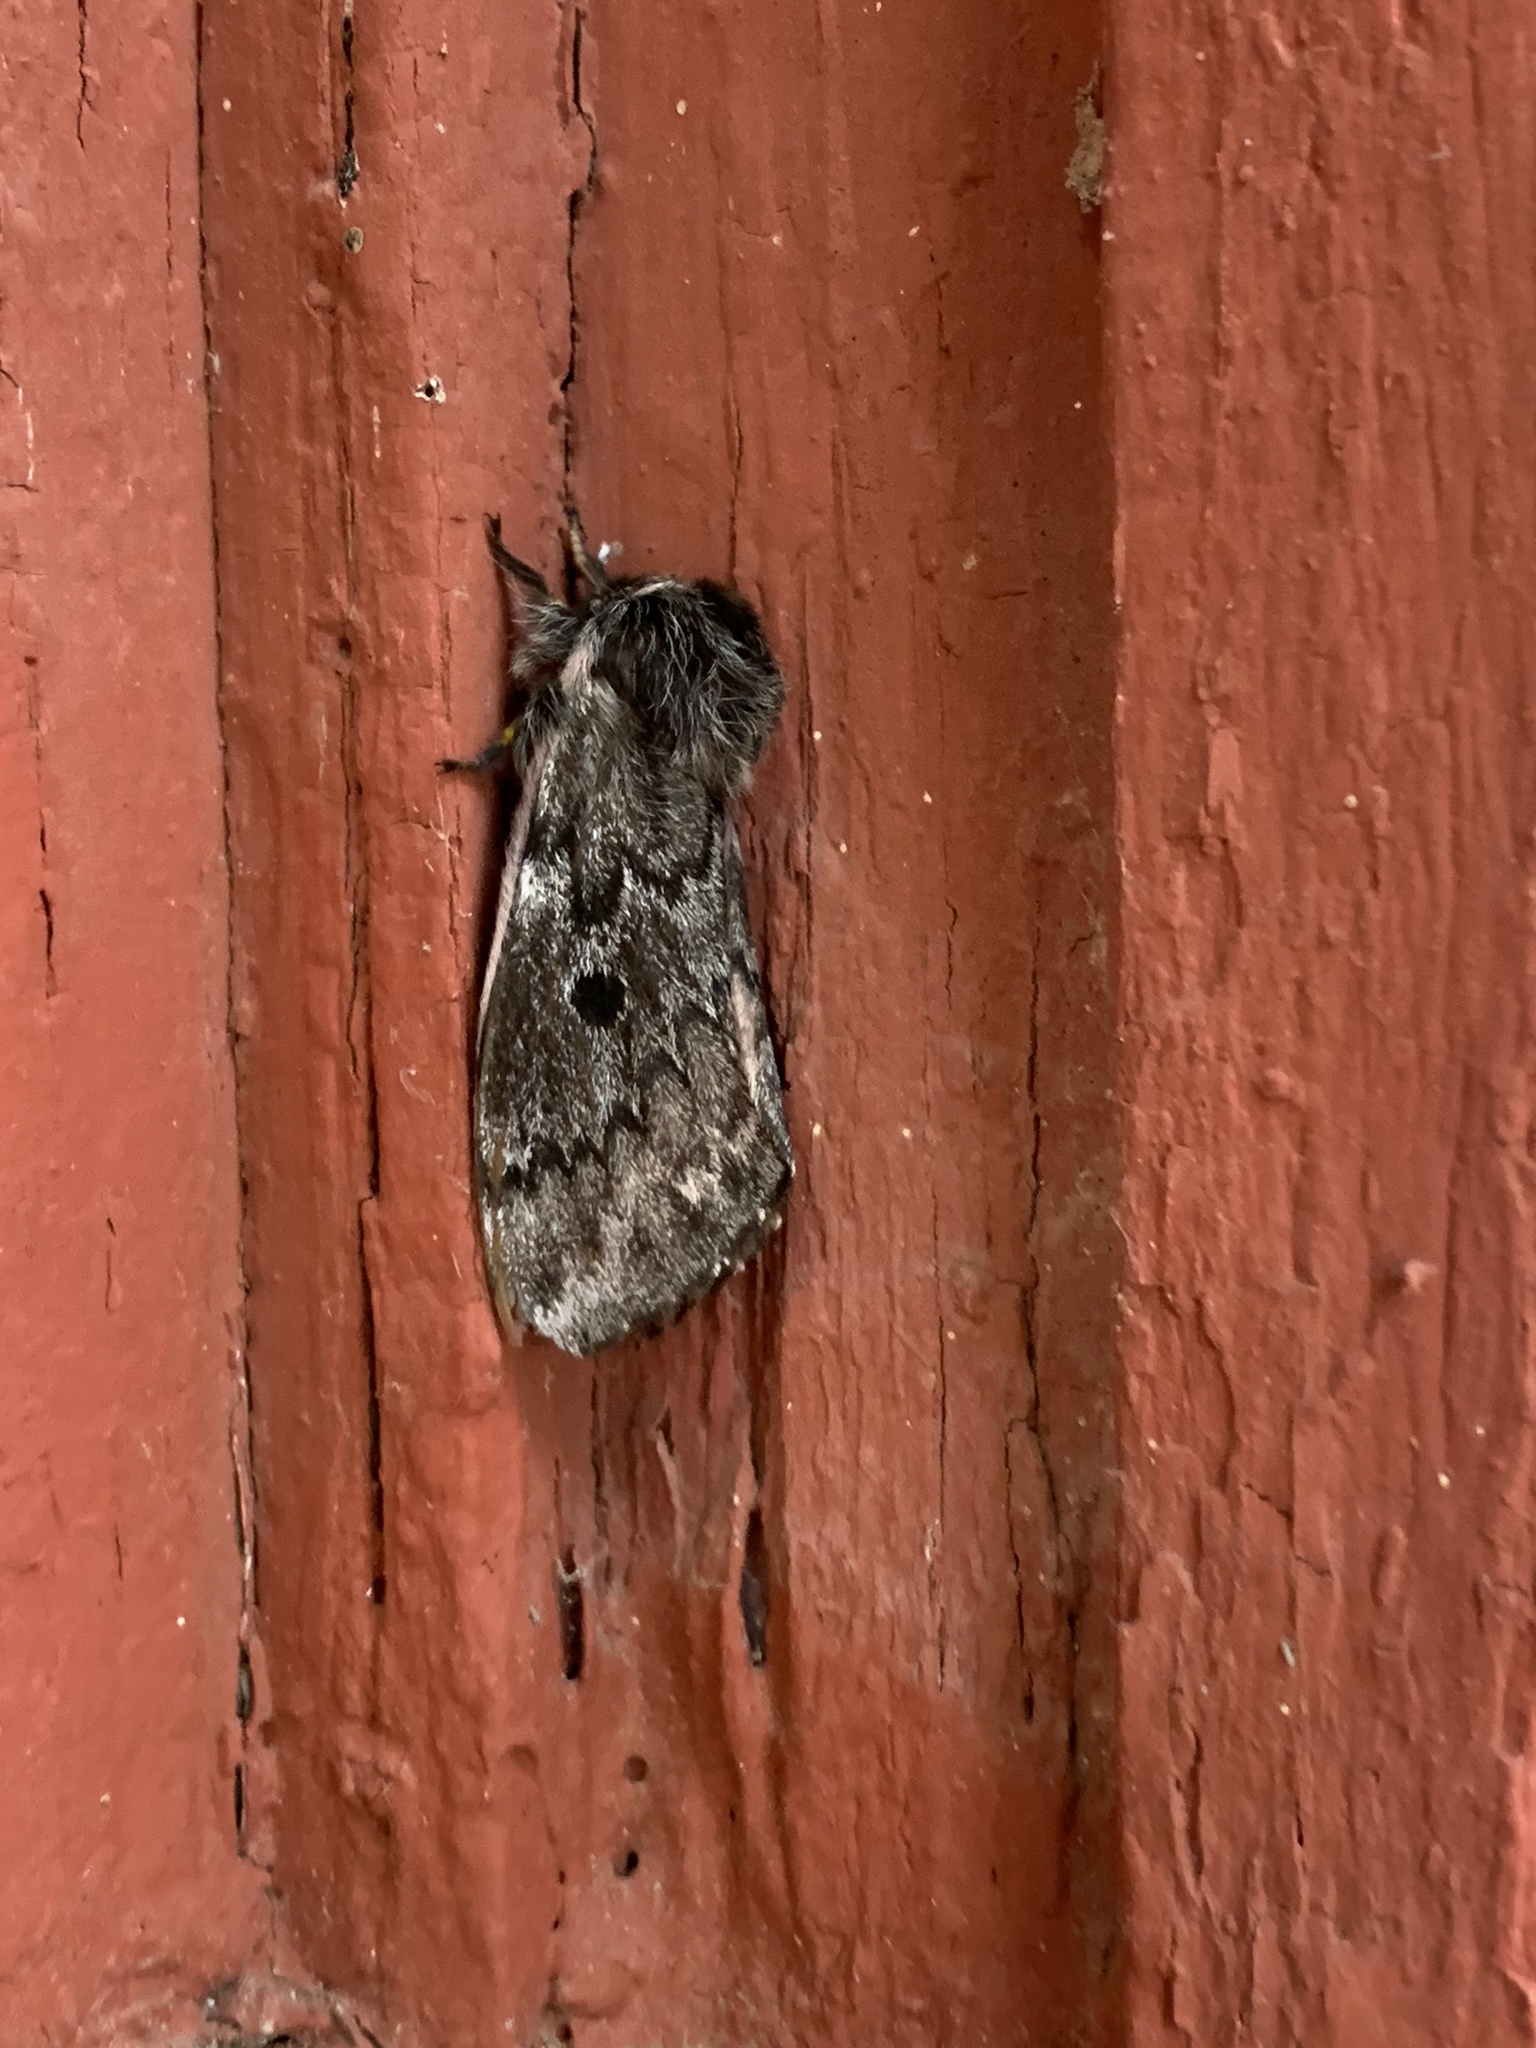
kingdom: Animalia
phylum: Arthropoda
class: Insecta
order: Lepidoptera
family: Saturniidae
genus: Coloradia
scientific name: Coloradia pandora
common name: Pandora pinemoth
